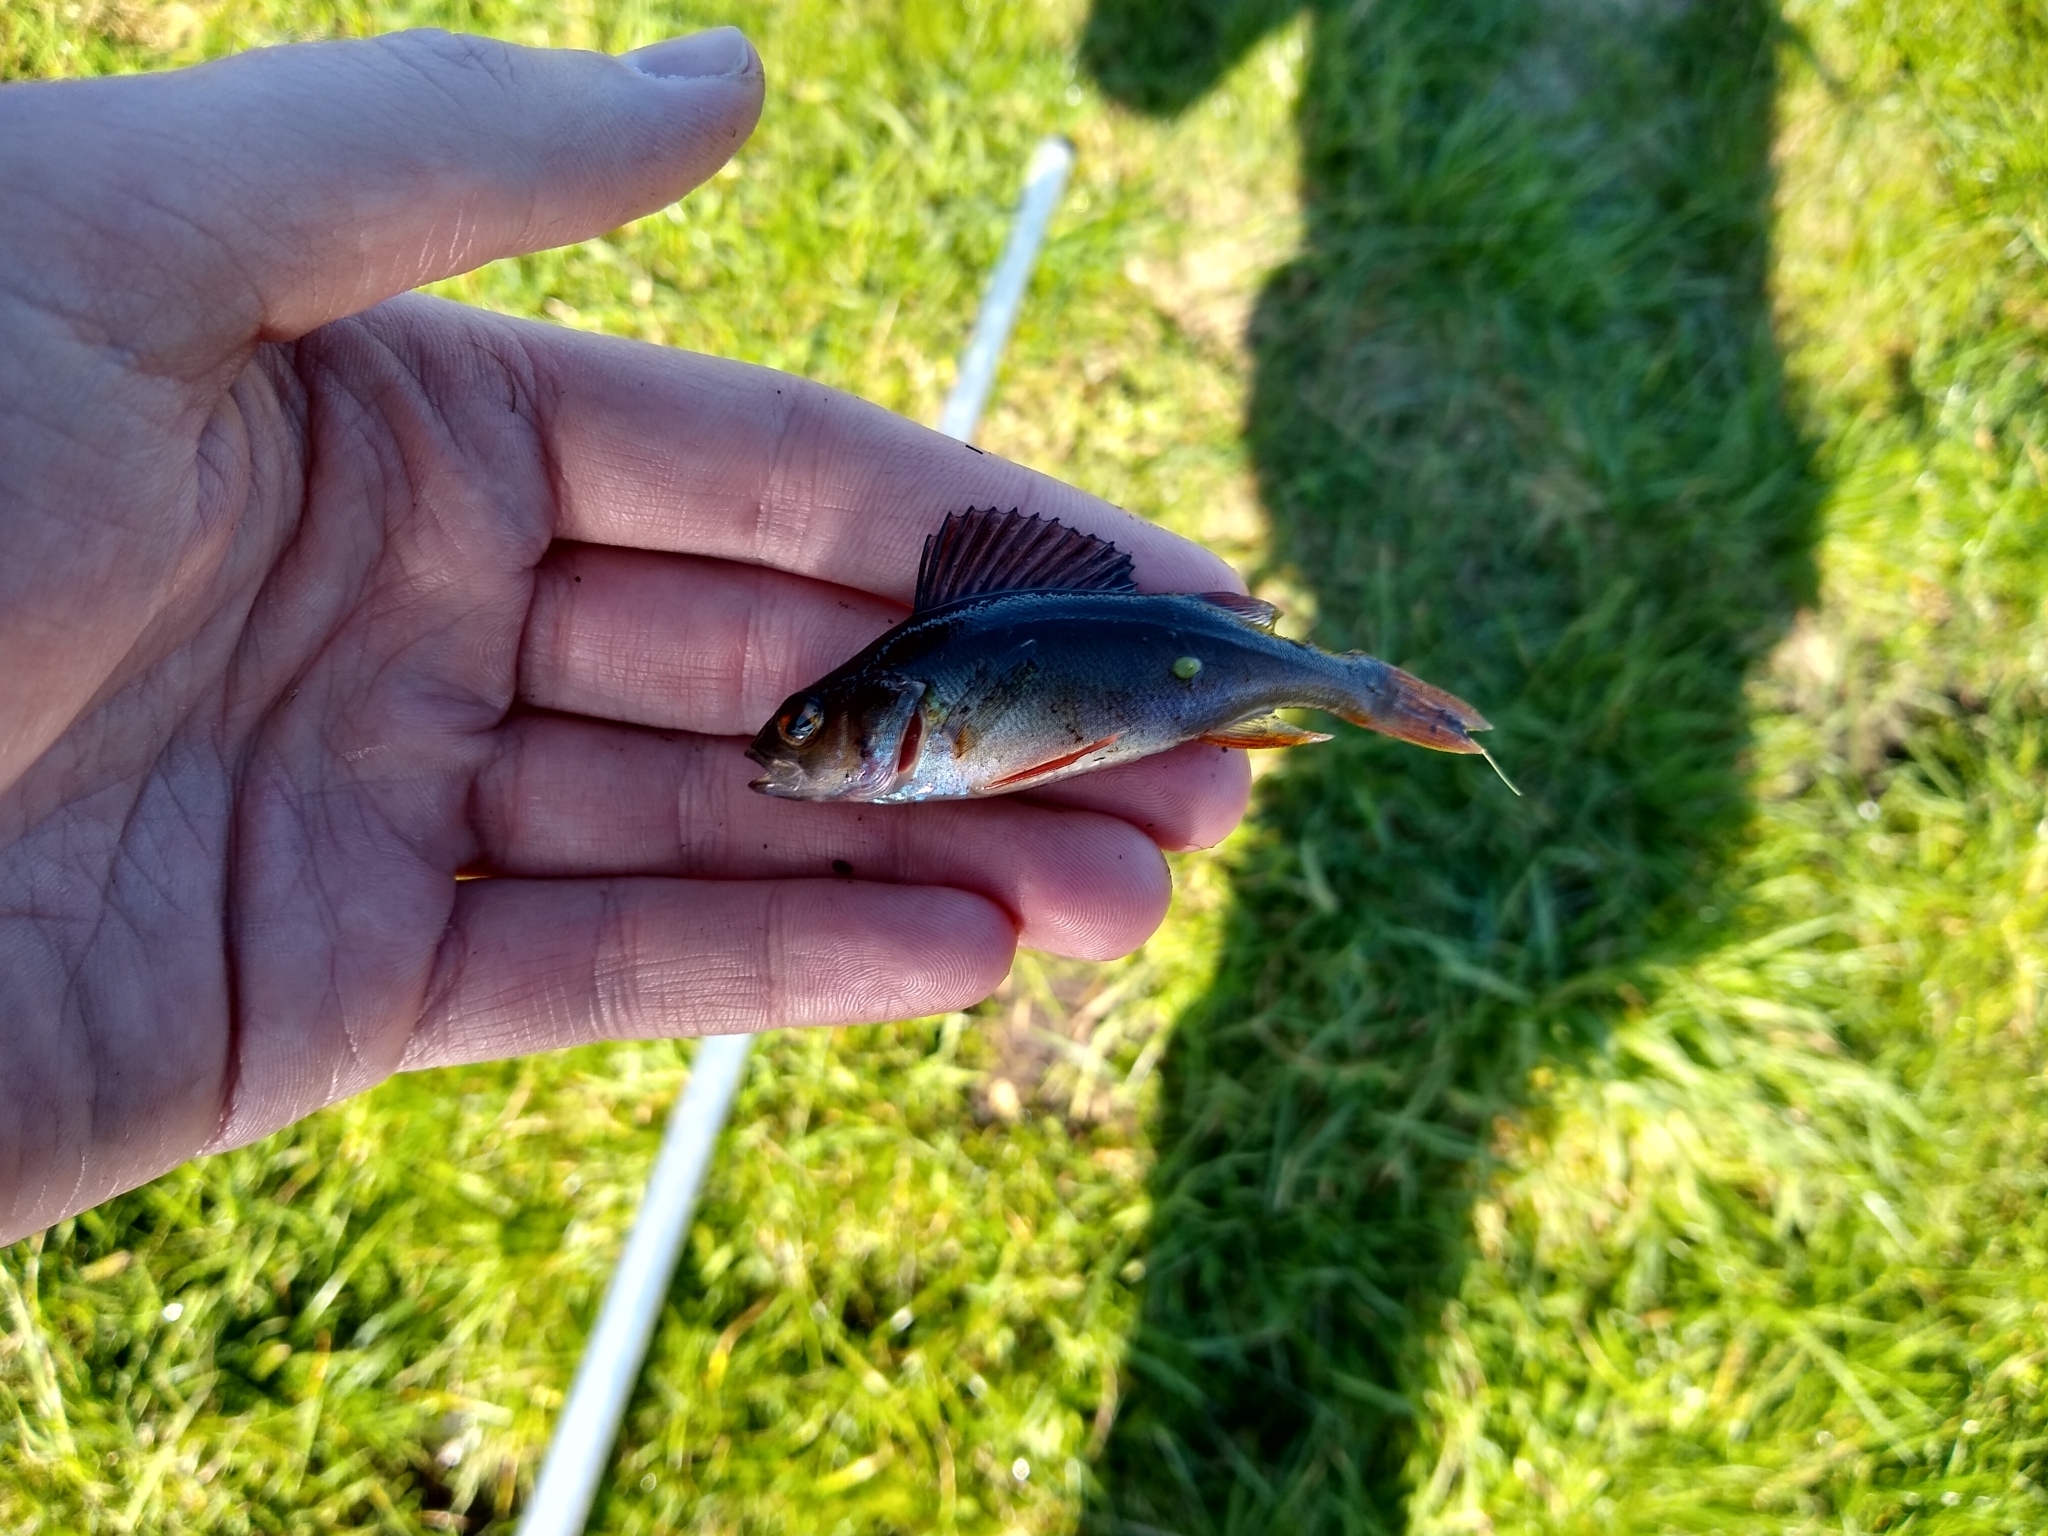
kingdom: Animalia
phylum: Chordata
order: Perciformes
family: Percidae
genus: Perca
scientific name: Perca fluviatilis
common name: Perch
